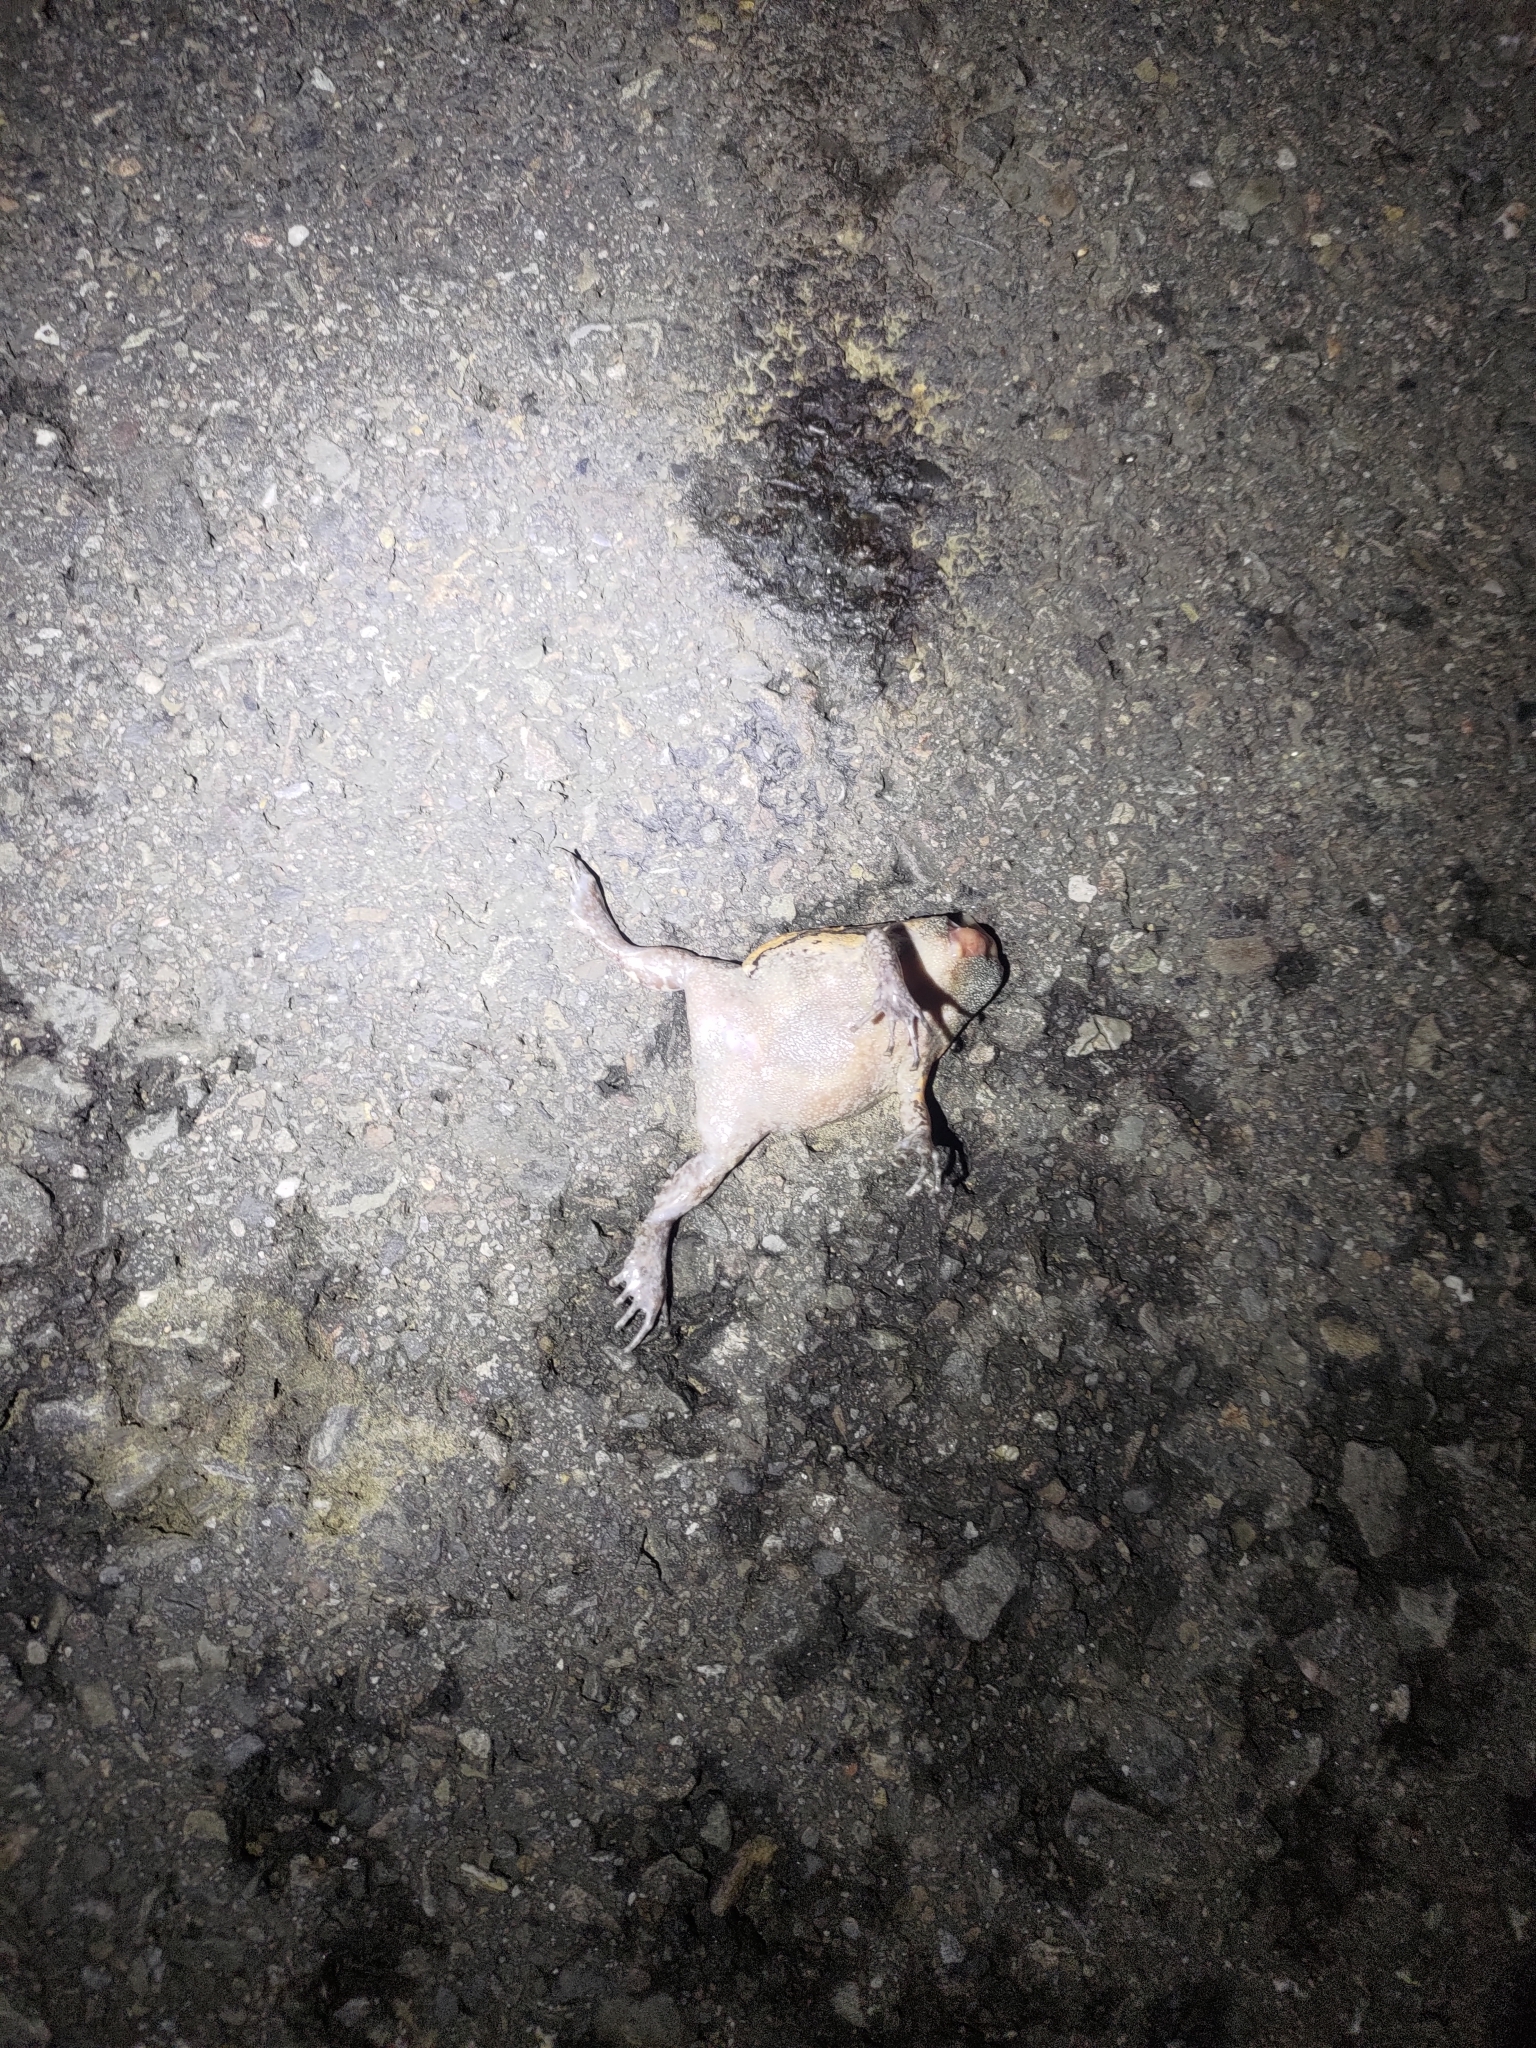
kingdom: Animalia
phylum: Chordata
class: Amphibia
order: Anura
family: Microhylidae
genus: Kaloula
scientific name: Kaloula pulchra
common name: Common,banded bullfrog
